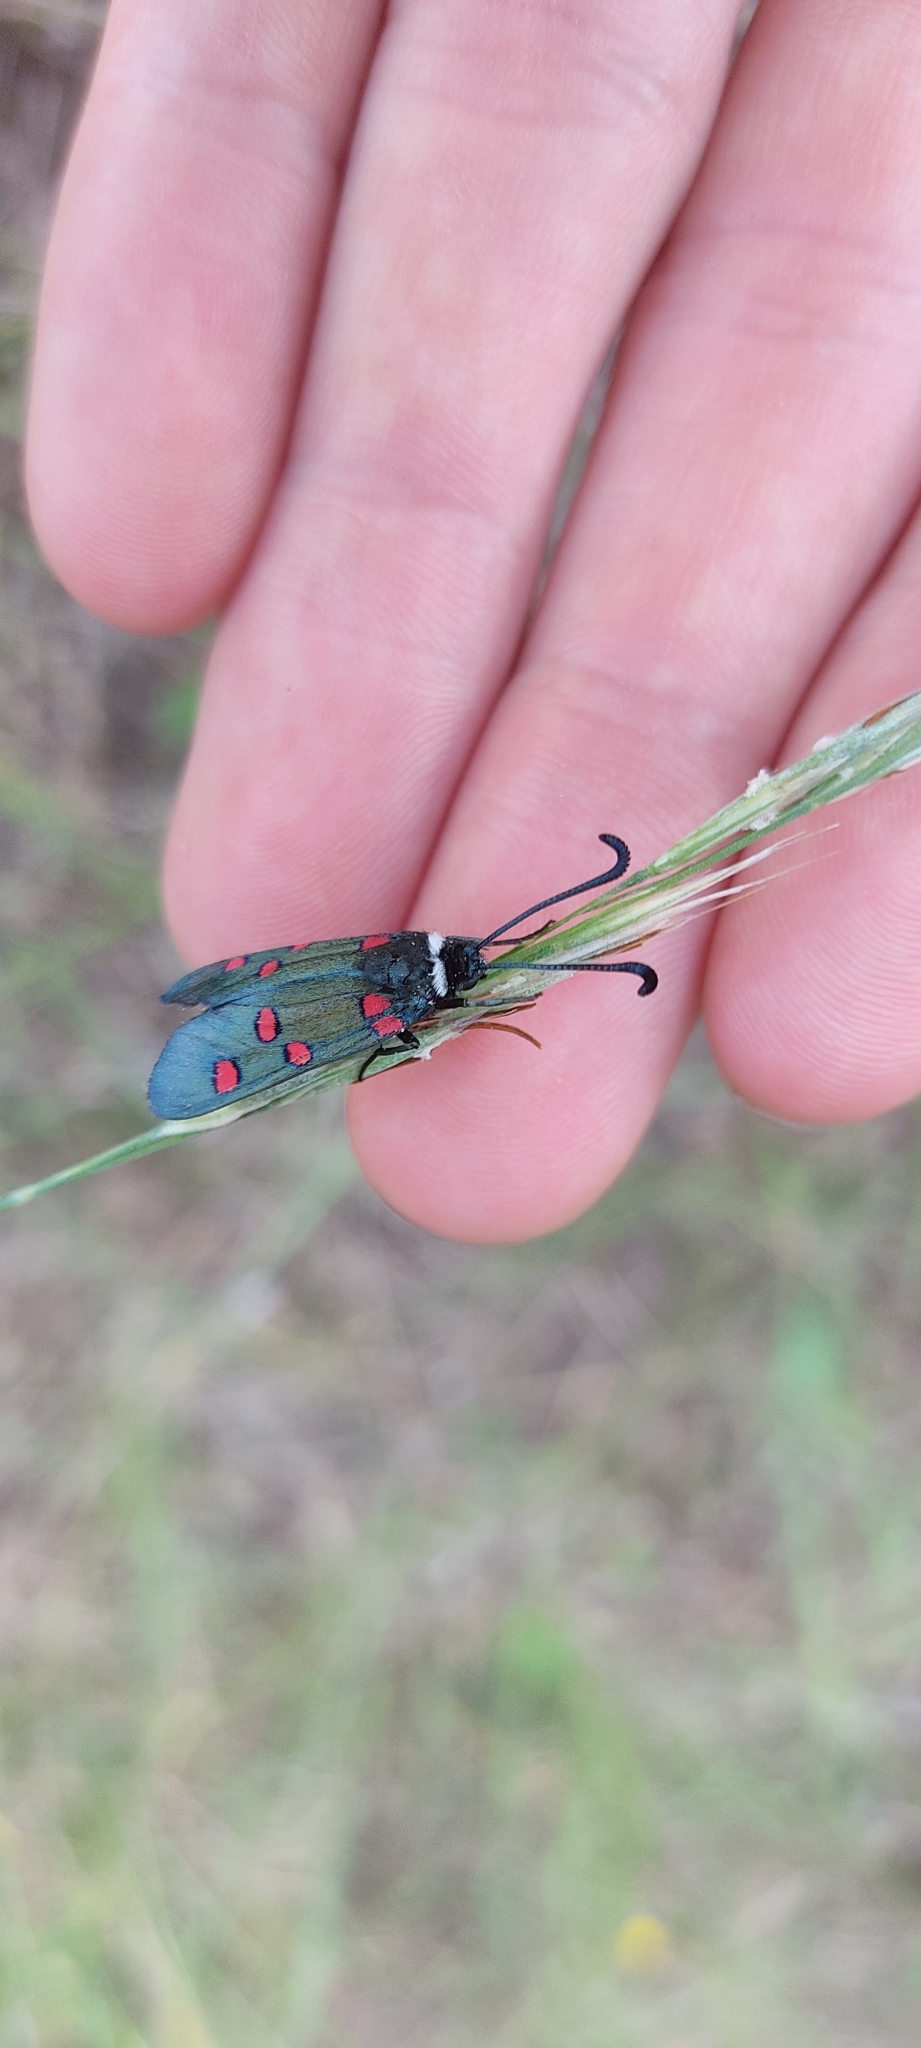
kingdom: Animalia
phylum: Arthropoda
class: Insecta
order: Lepidoptera
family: Zygaenidae
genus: Zygaena
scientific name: Zygaena lavandulae
